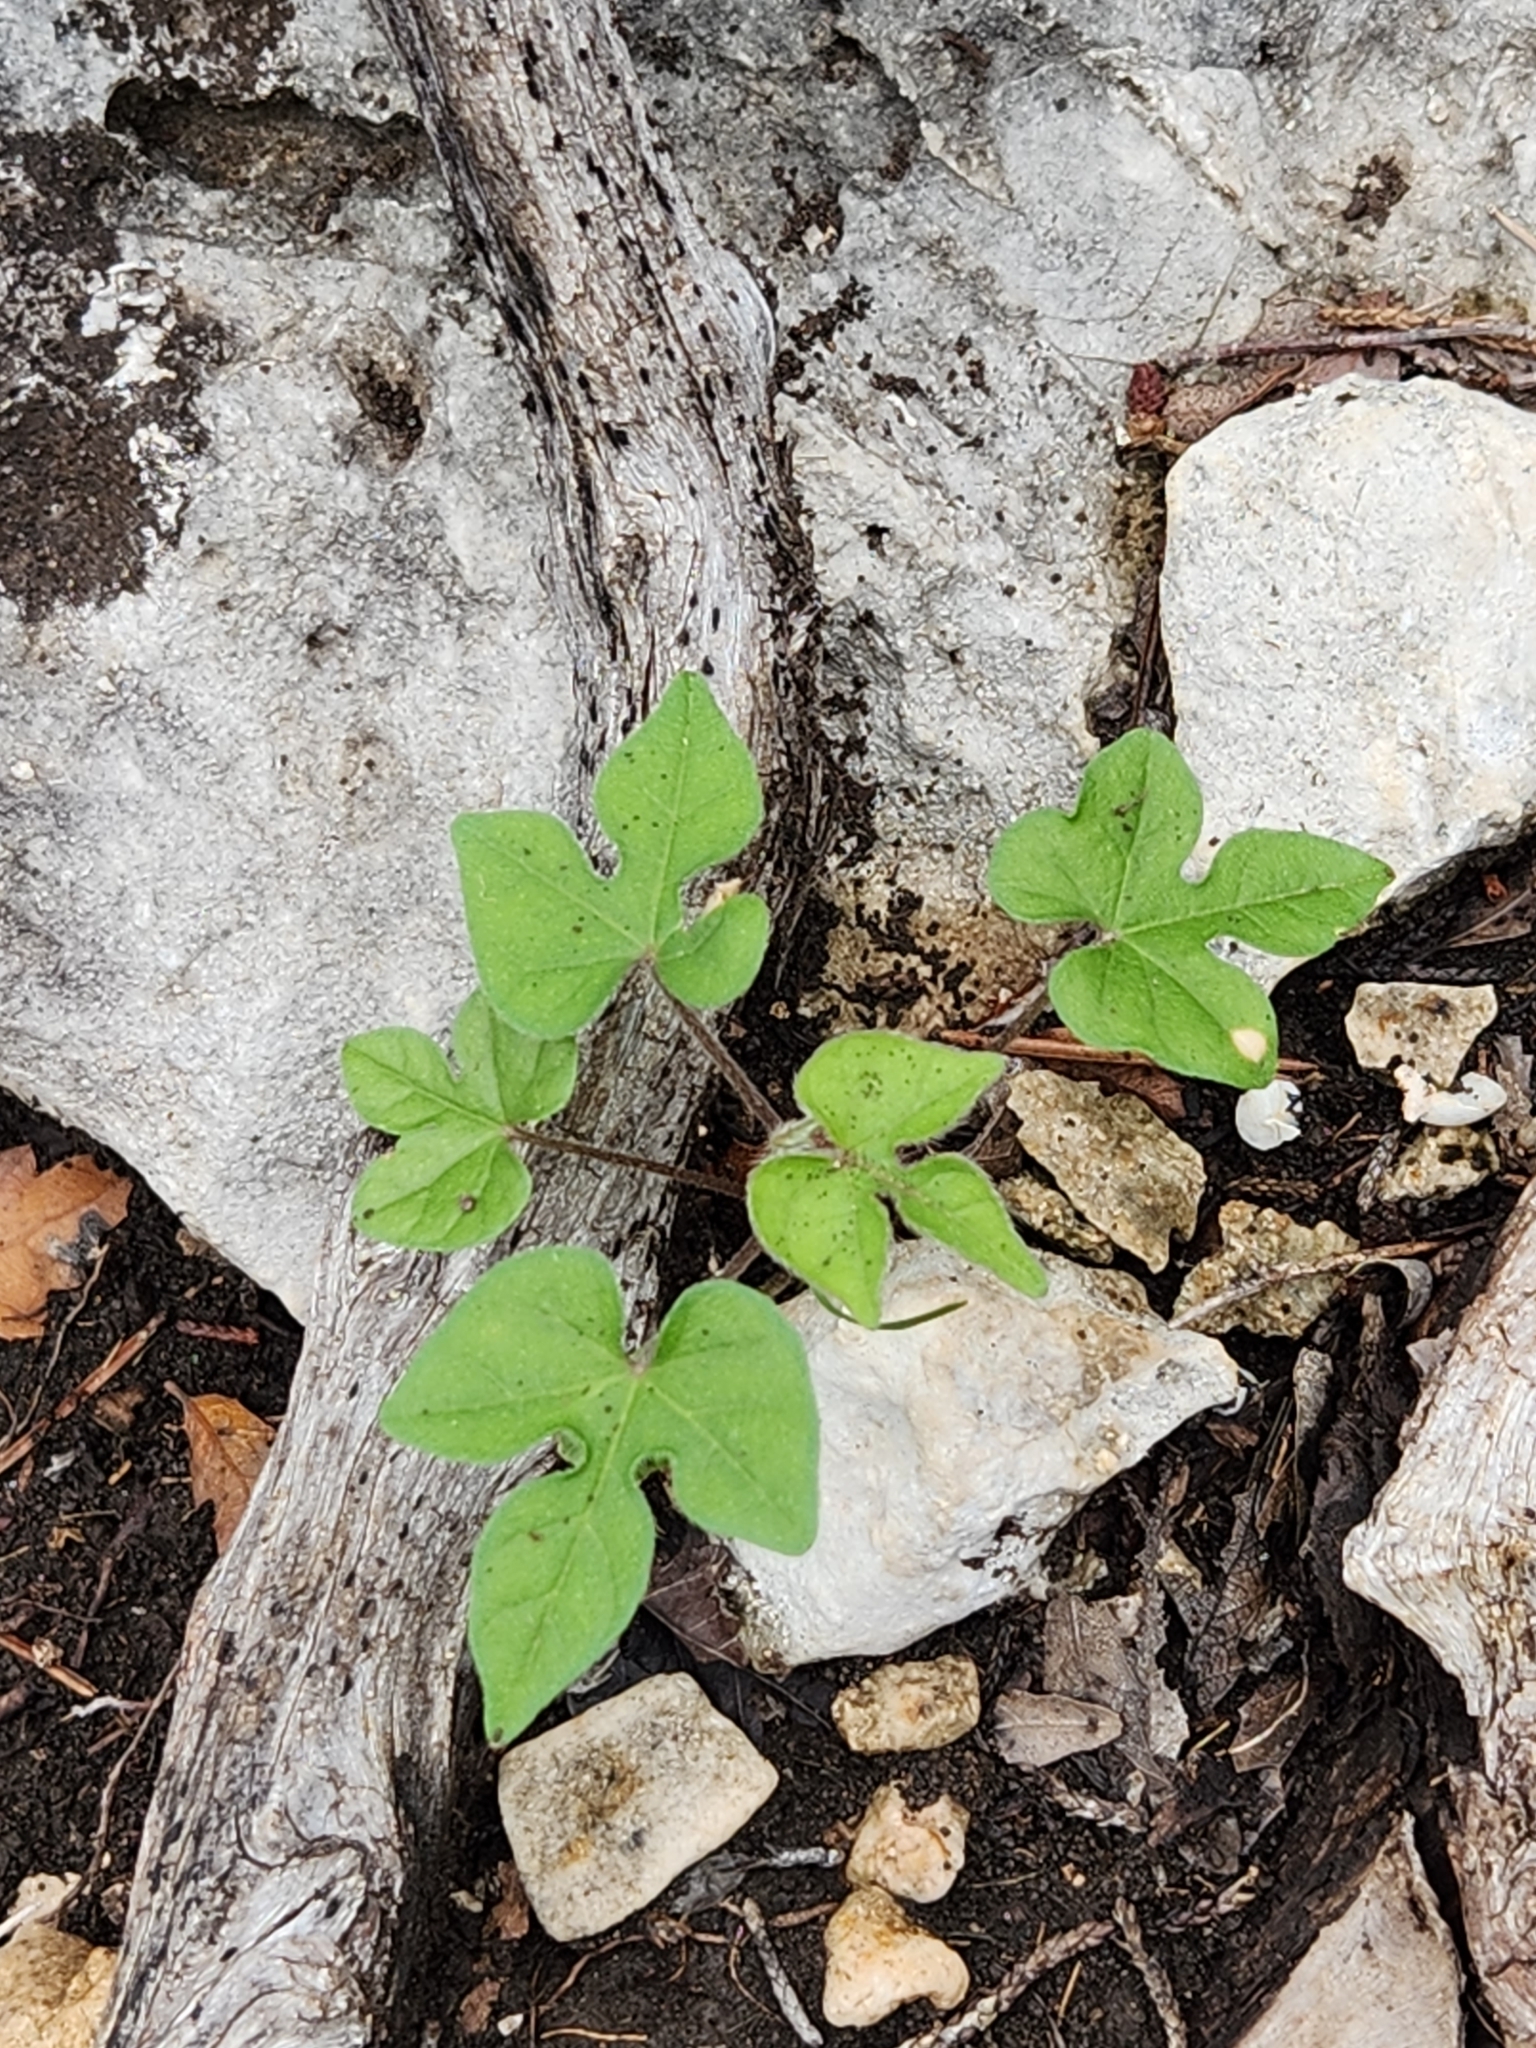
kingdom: Plantae
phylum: Tracheophyta
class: Magnoliopsida
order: Solanales
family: Convolvulaceae
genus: Ipomoea
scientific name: Ipomoea lindheimeri
